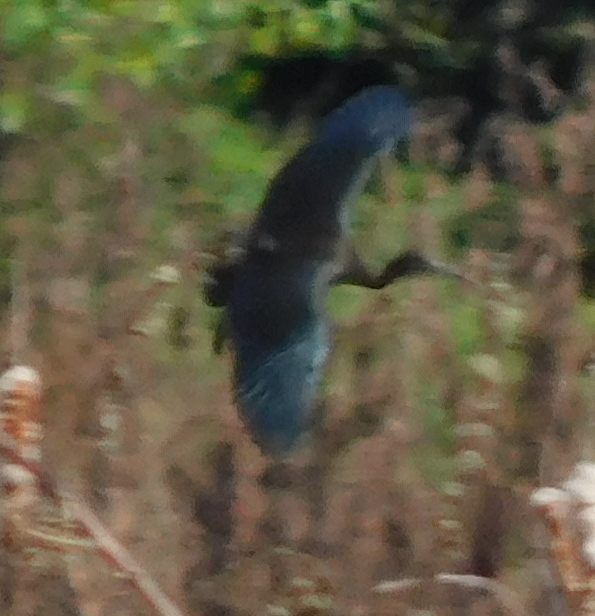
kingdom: Animalia
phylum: Chordata
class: Aves
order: Pelecaniformes
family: Threskiornithidae
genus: Plegadis
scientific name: Plegadis falcinellus
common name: Glossy ibis
